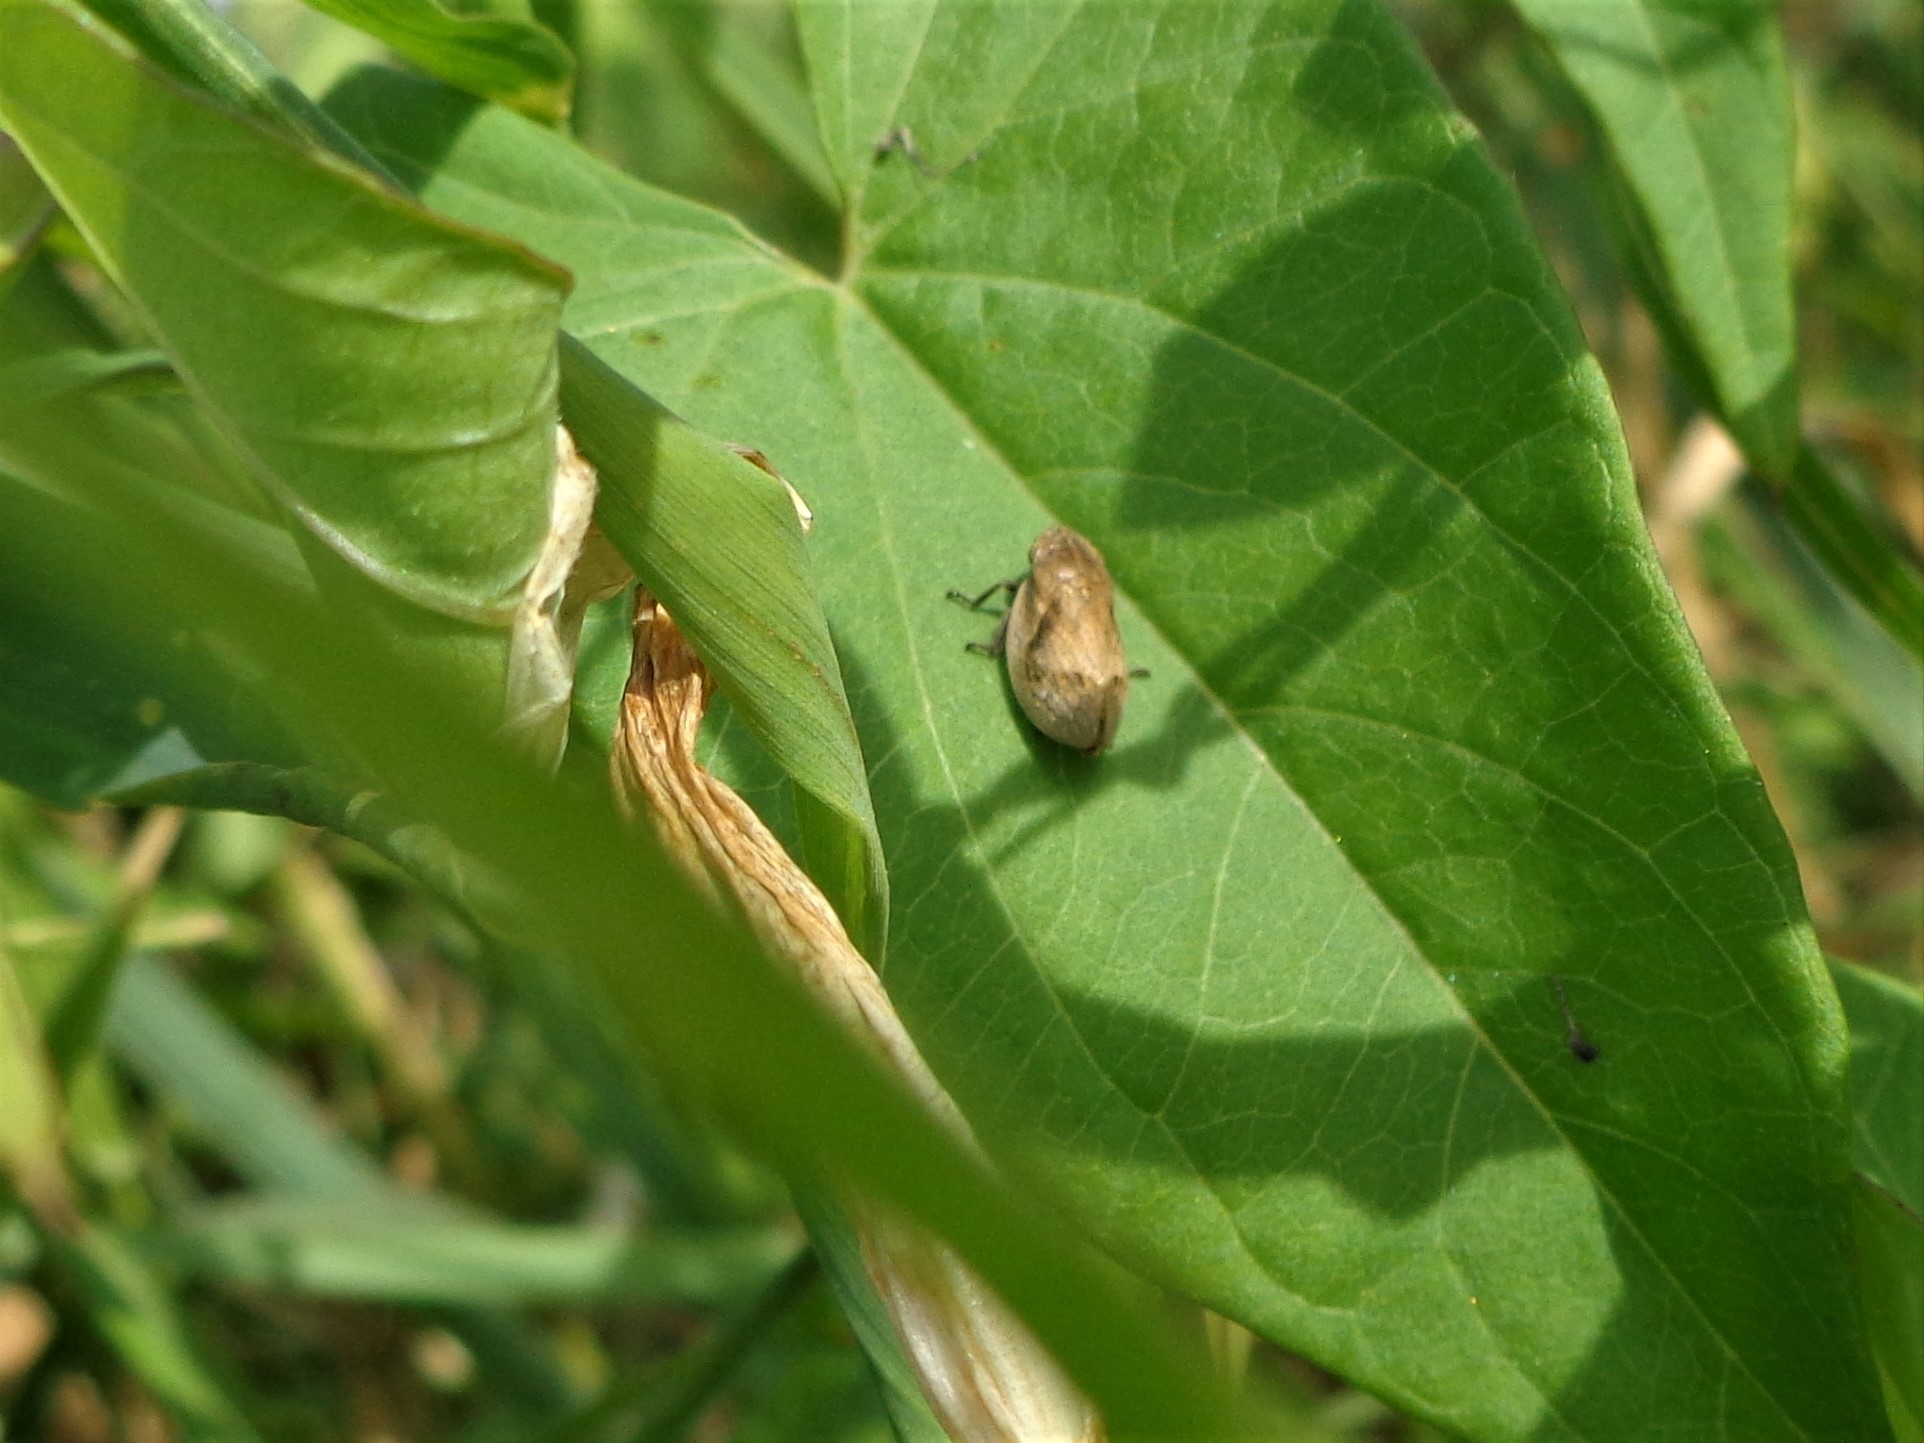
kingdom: Animalia
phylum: Arthropoda
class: Insecta
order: Hemiptera
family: Aphrophoridae
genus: Lepyronia
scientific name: Lepyronia coleoptrata
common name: Leafhopper
